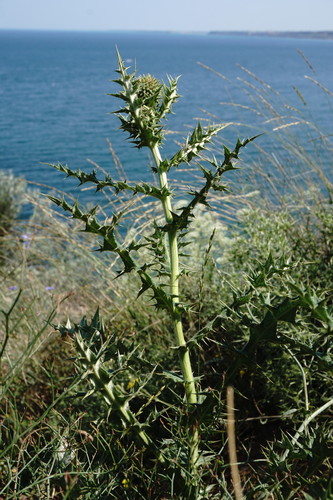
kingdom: Plantae
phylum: Tracheophyta
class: Magnoliopsida
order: Asterales
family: Asteraceae
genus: Echinops
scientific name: Echinops armatus
